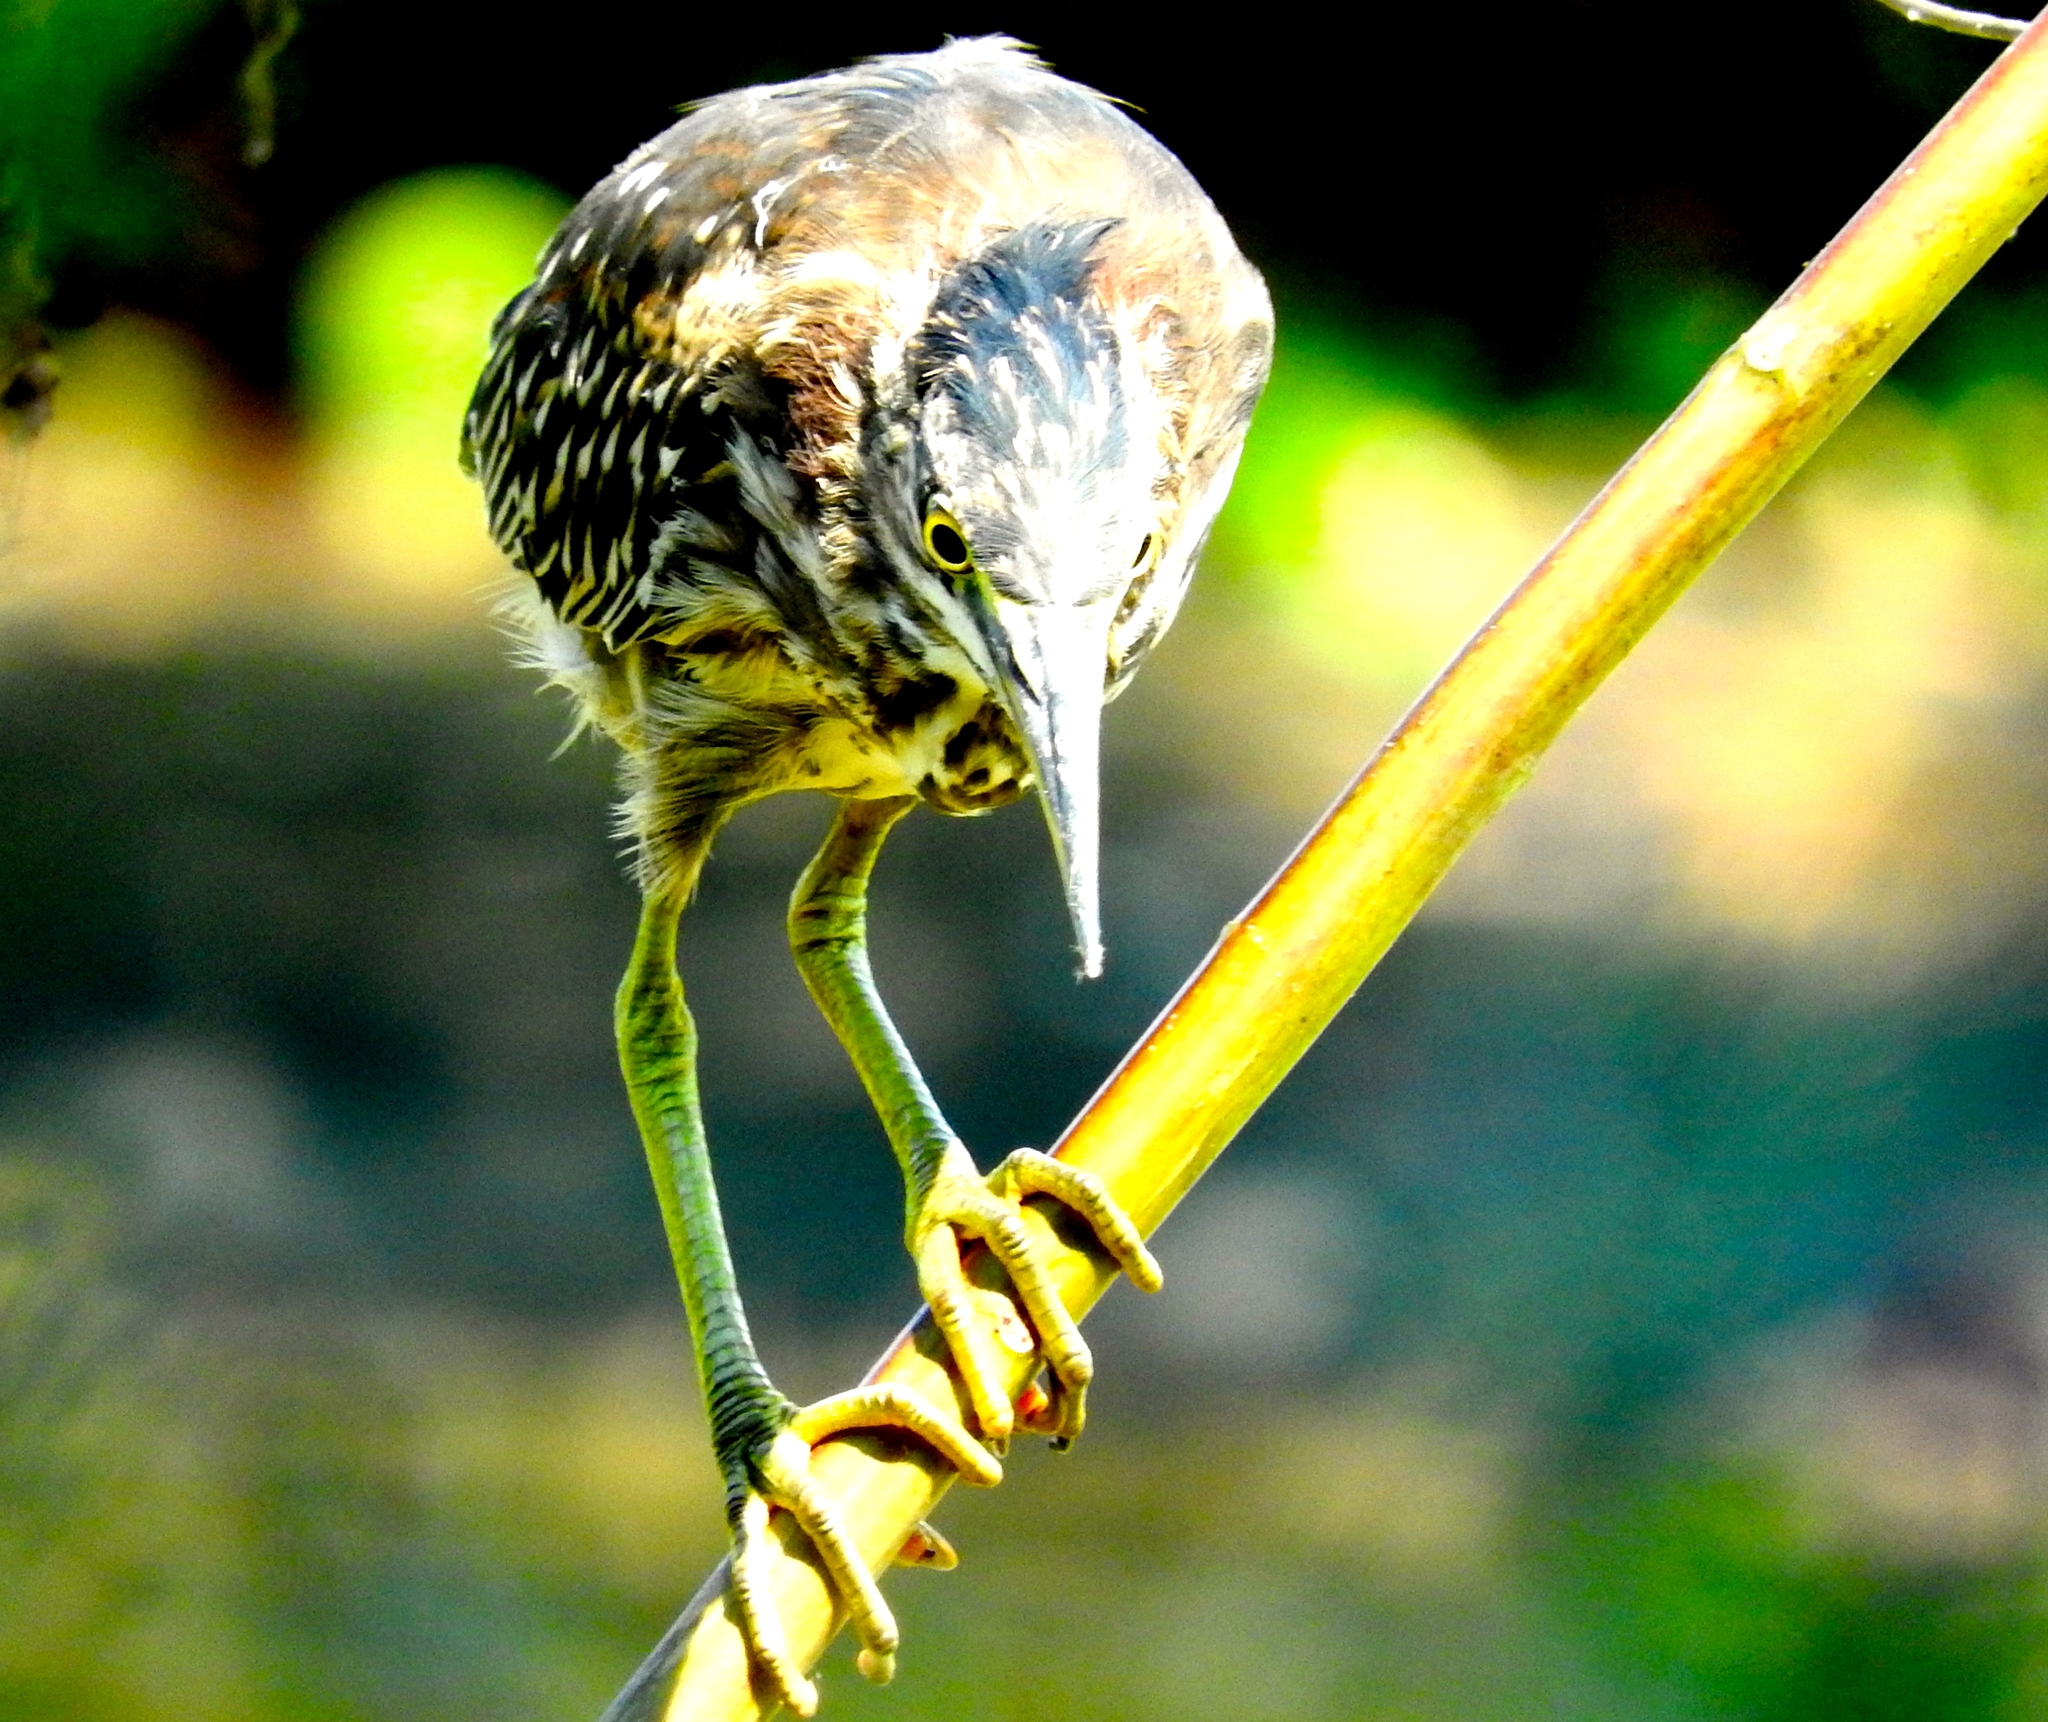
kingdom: Animalia
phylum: Chordata
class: Aves
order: Pelecaniformes
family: Ardeidae
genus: Butorides
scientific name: Butorides virescens
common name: Green heron
